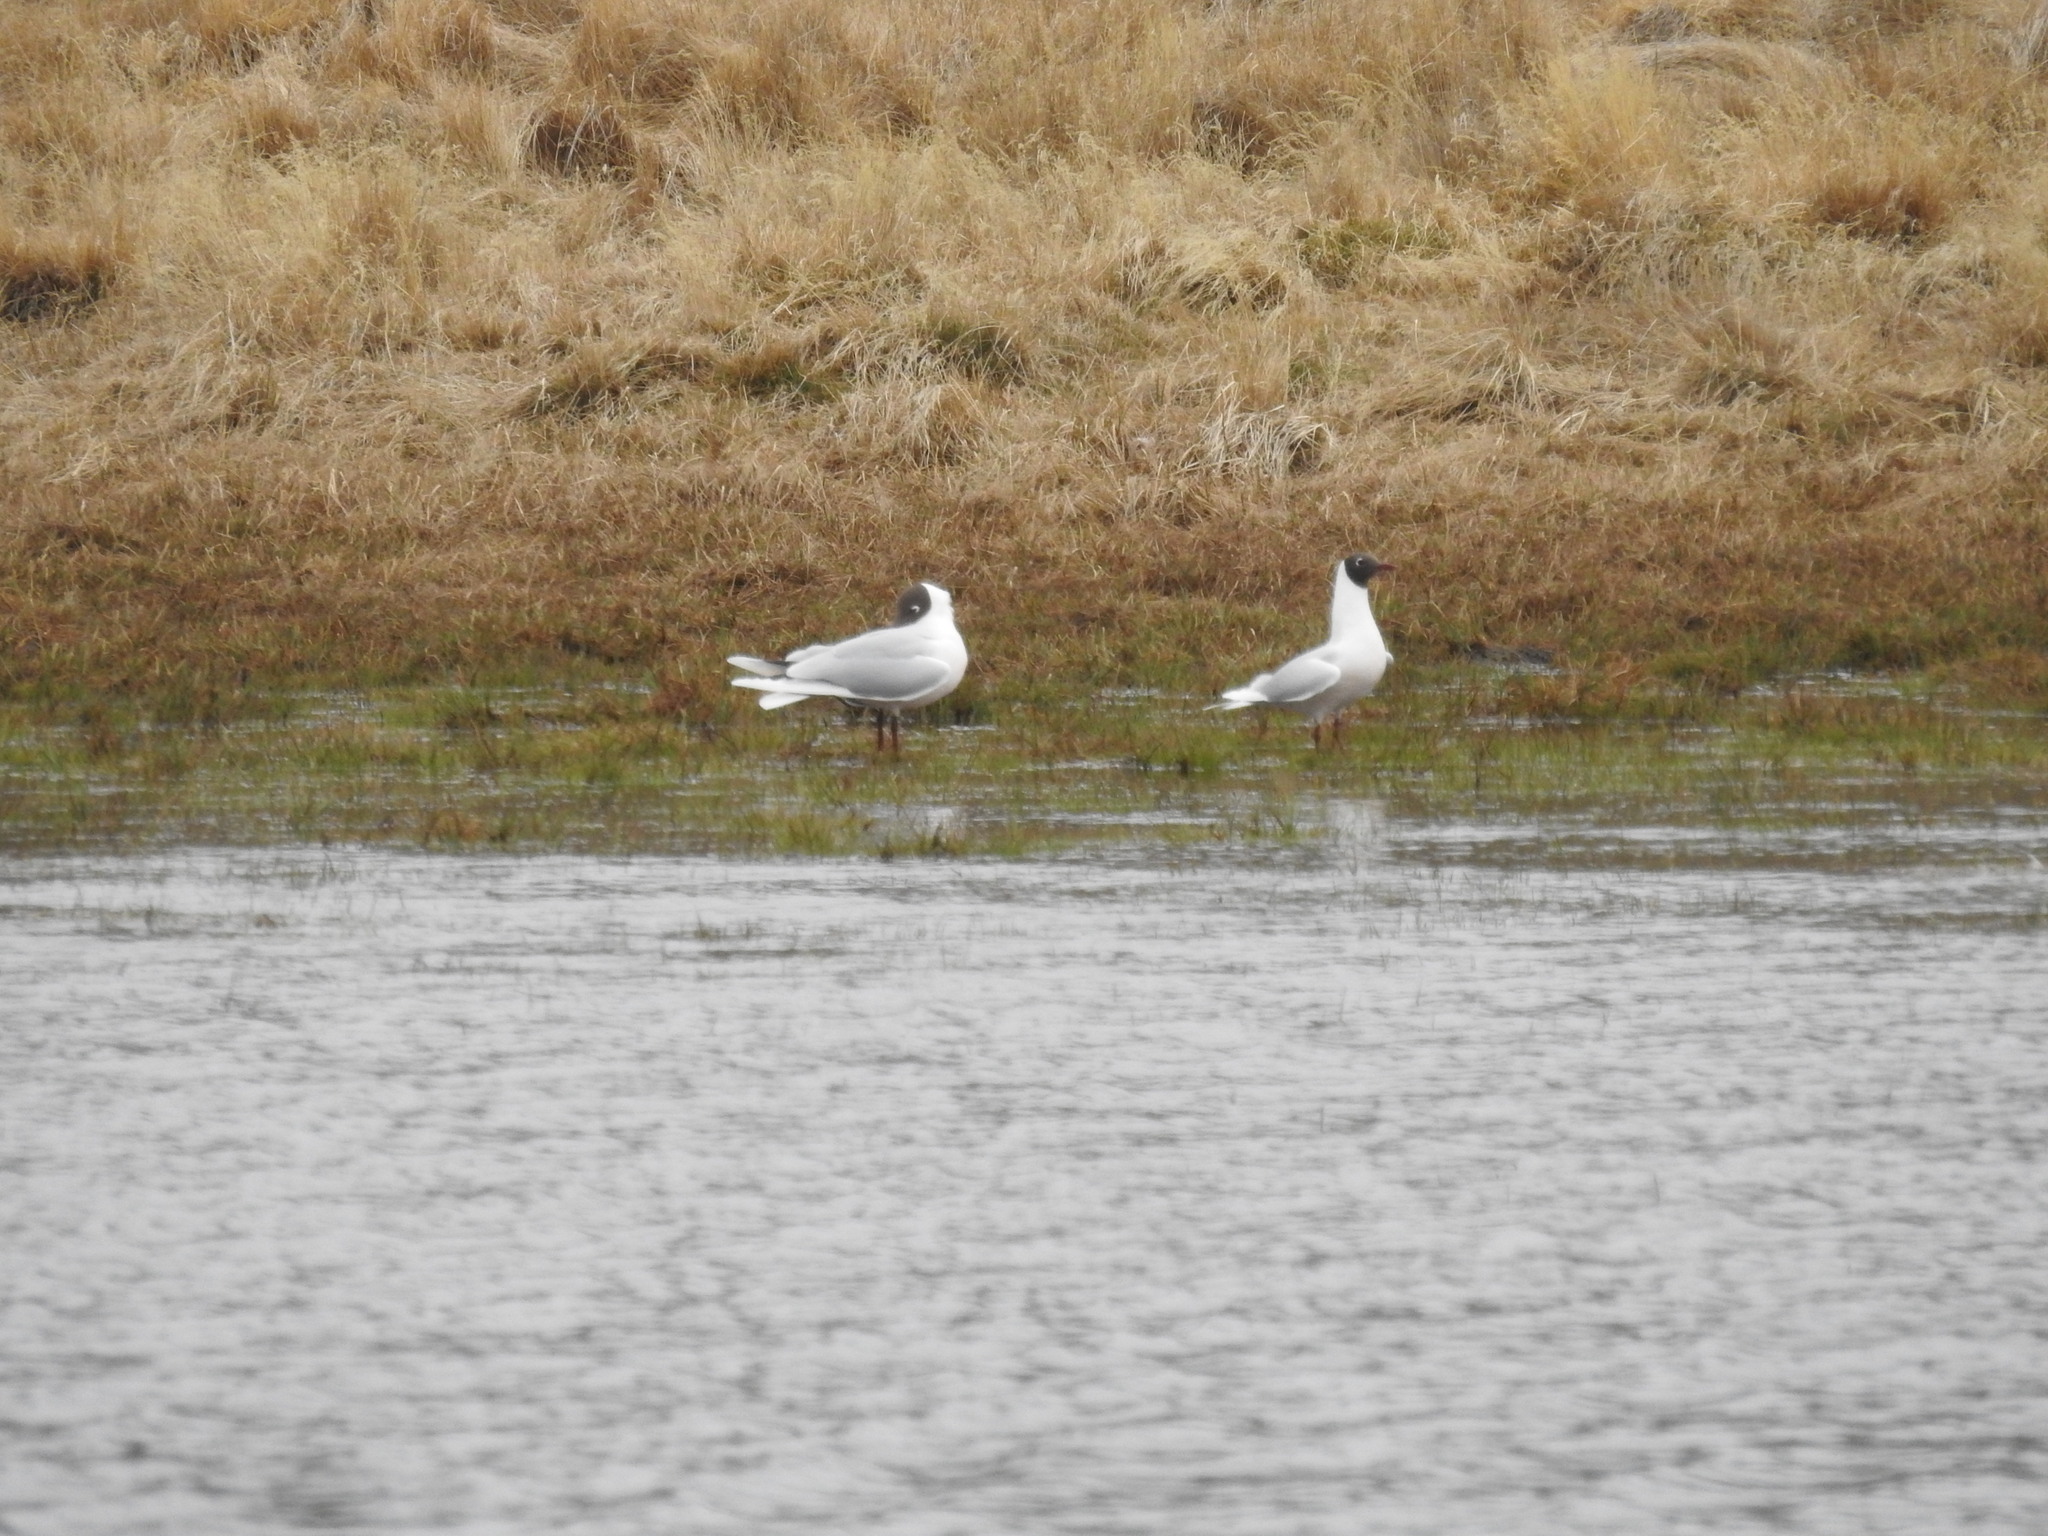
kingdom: Animalia
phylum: Chordata
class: Aves
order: Charadriiformes
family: Laridae
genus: Chroicocephalus
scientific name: Chroicocephalus maculipennis
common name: Brown-hooded gull
